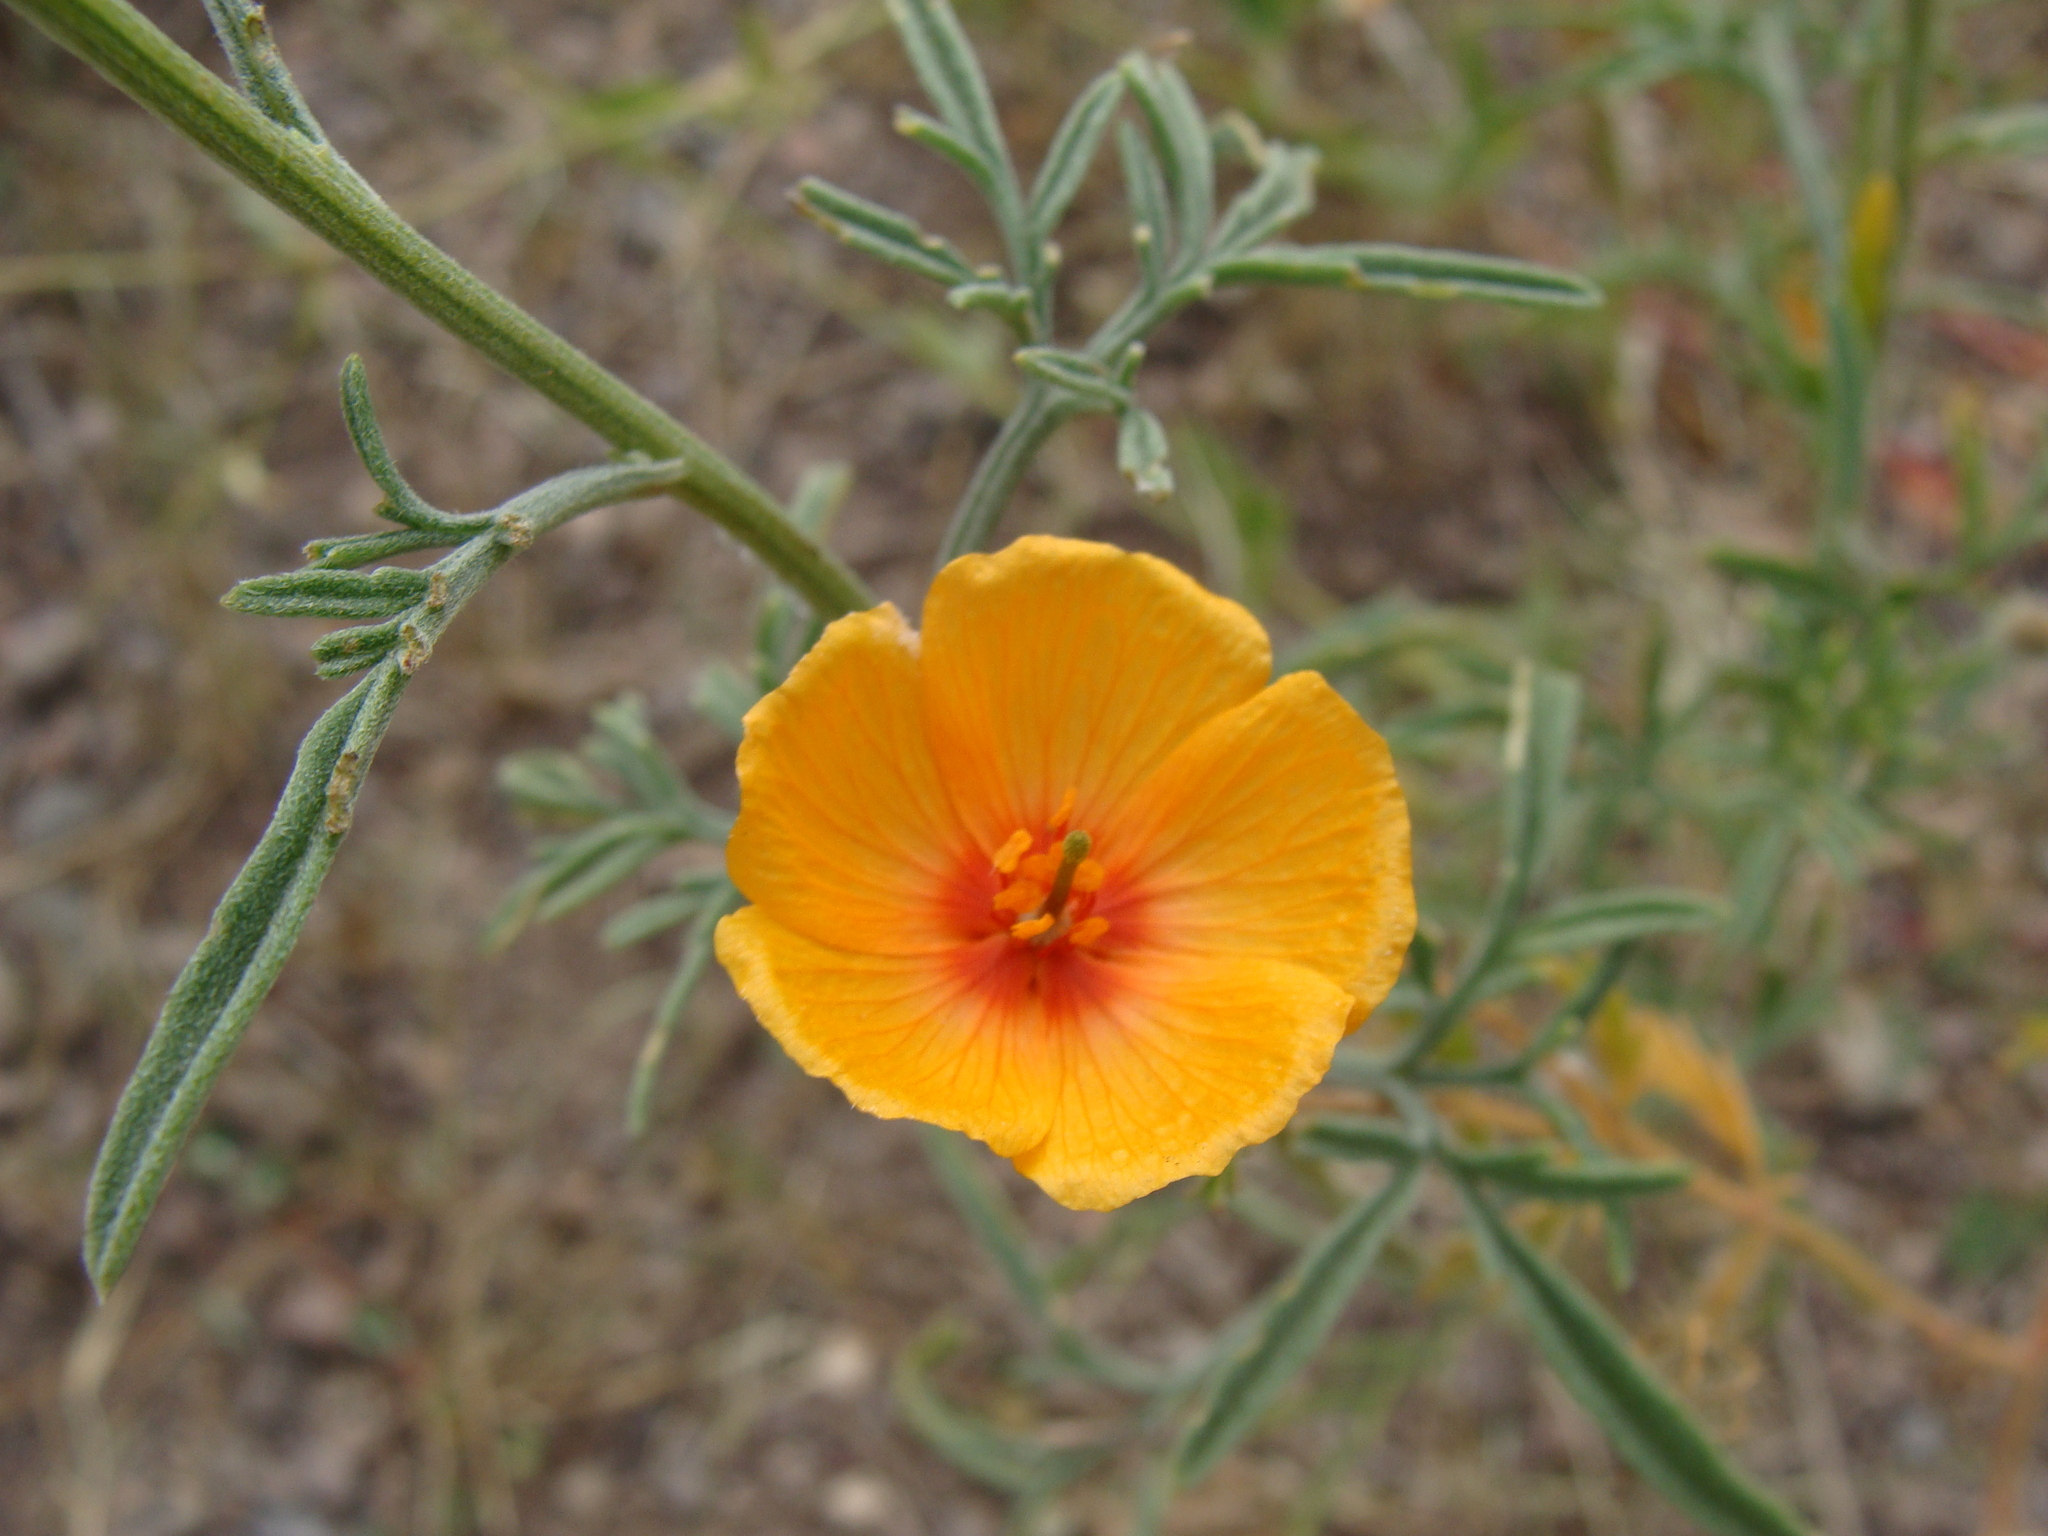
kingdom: Plantae
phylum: Tracheophyta
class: Magnoliopsida
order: Zygophyllales
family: Zygophyllaceae
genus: Kallstroemia
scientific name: Kallstroemia grandiflora
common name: Arizona-poppy
